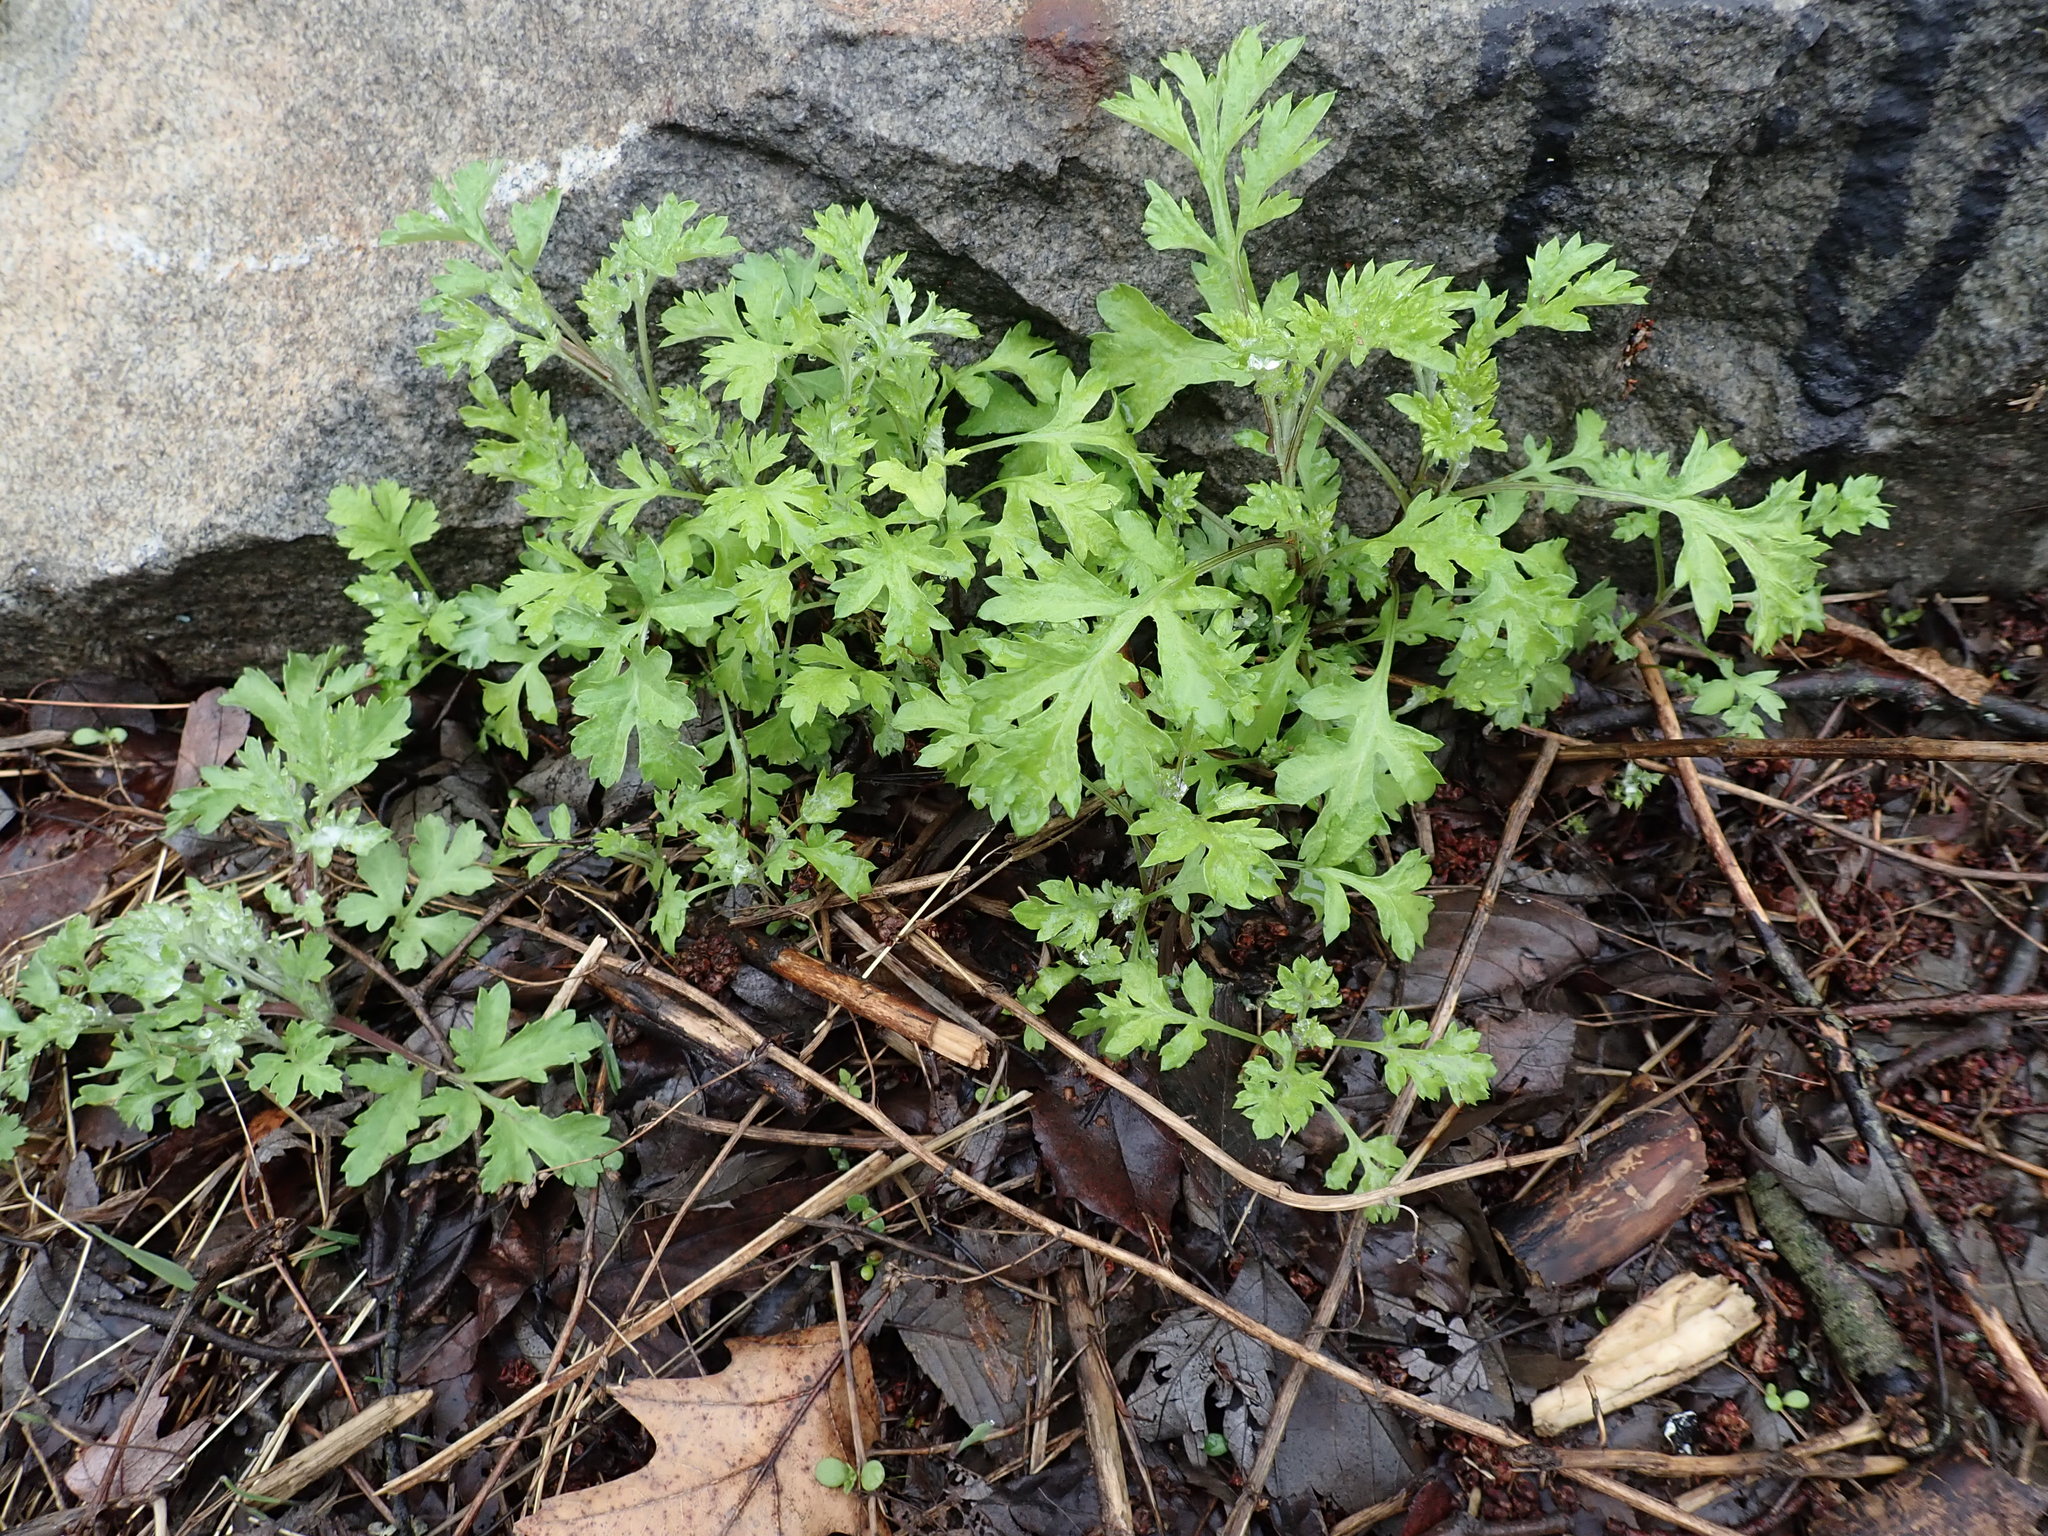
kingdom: Plantae
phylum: Tracheophyta
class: Magnoliopsida
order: Asterales
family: Asteraceae
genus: Artemisia
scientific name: Artemisia vulgaris
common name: Mugwort
